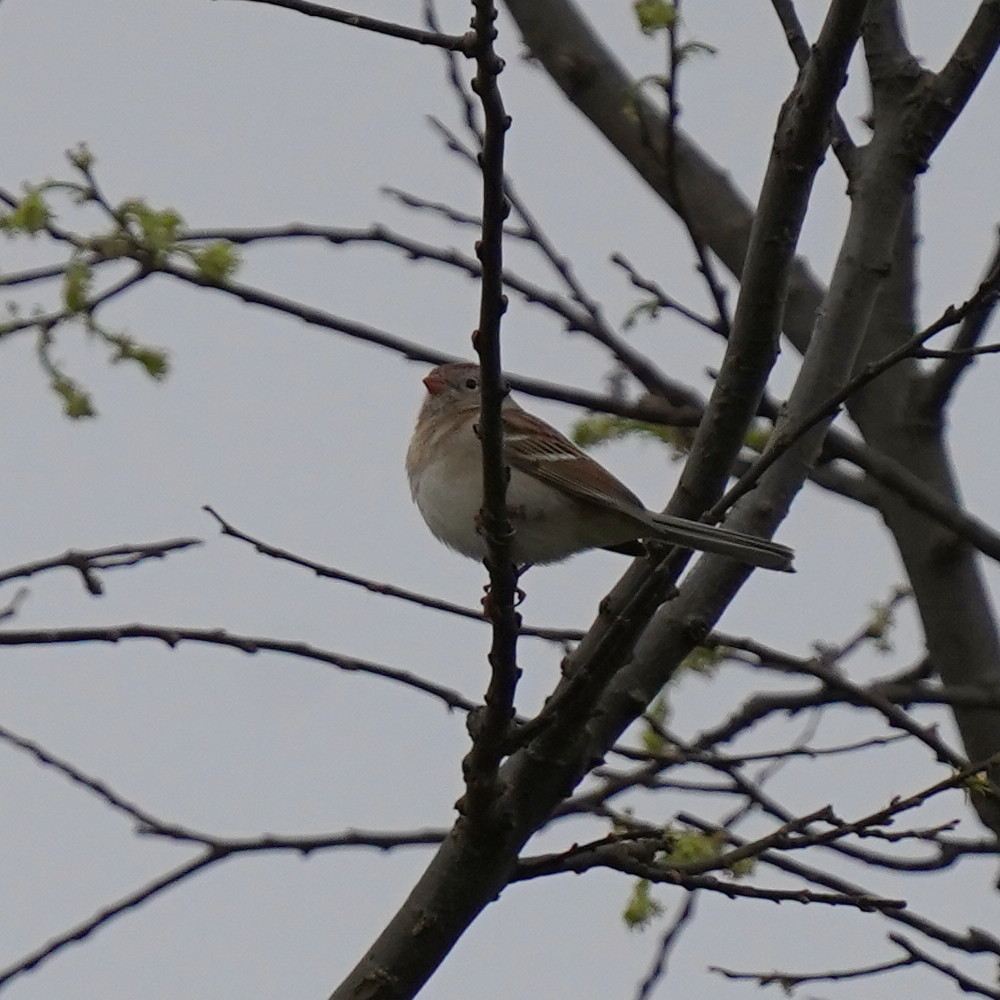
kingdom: Animalia
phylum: Chordata
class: Aves
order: Passeriformes
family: Passerellidae
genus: Spizella
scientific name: Spizella pusilla
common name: Field sparrow
